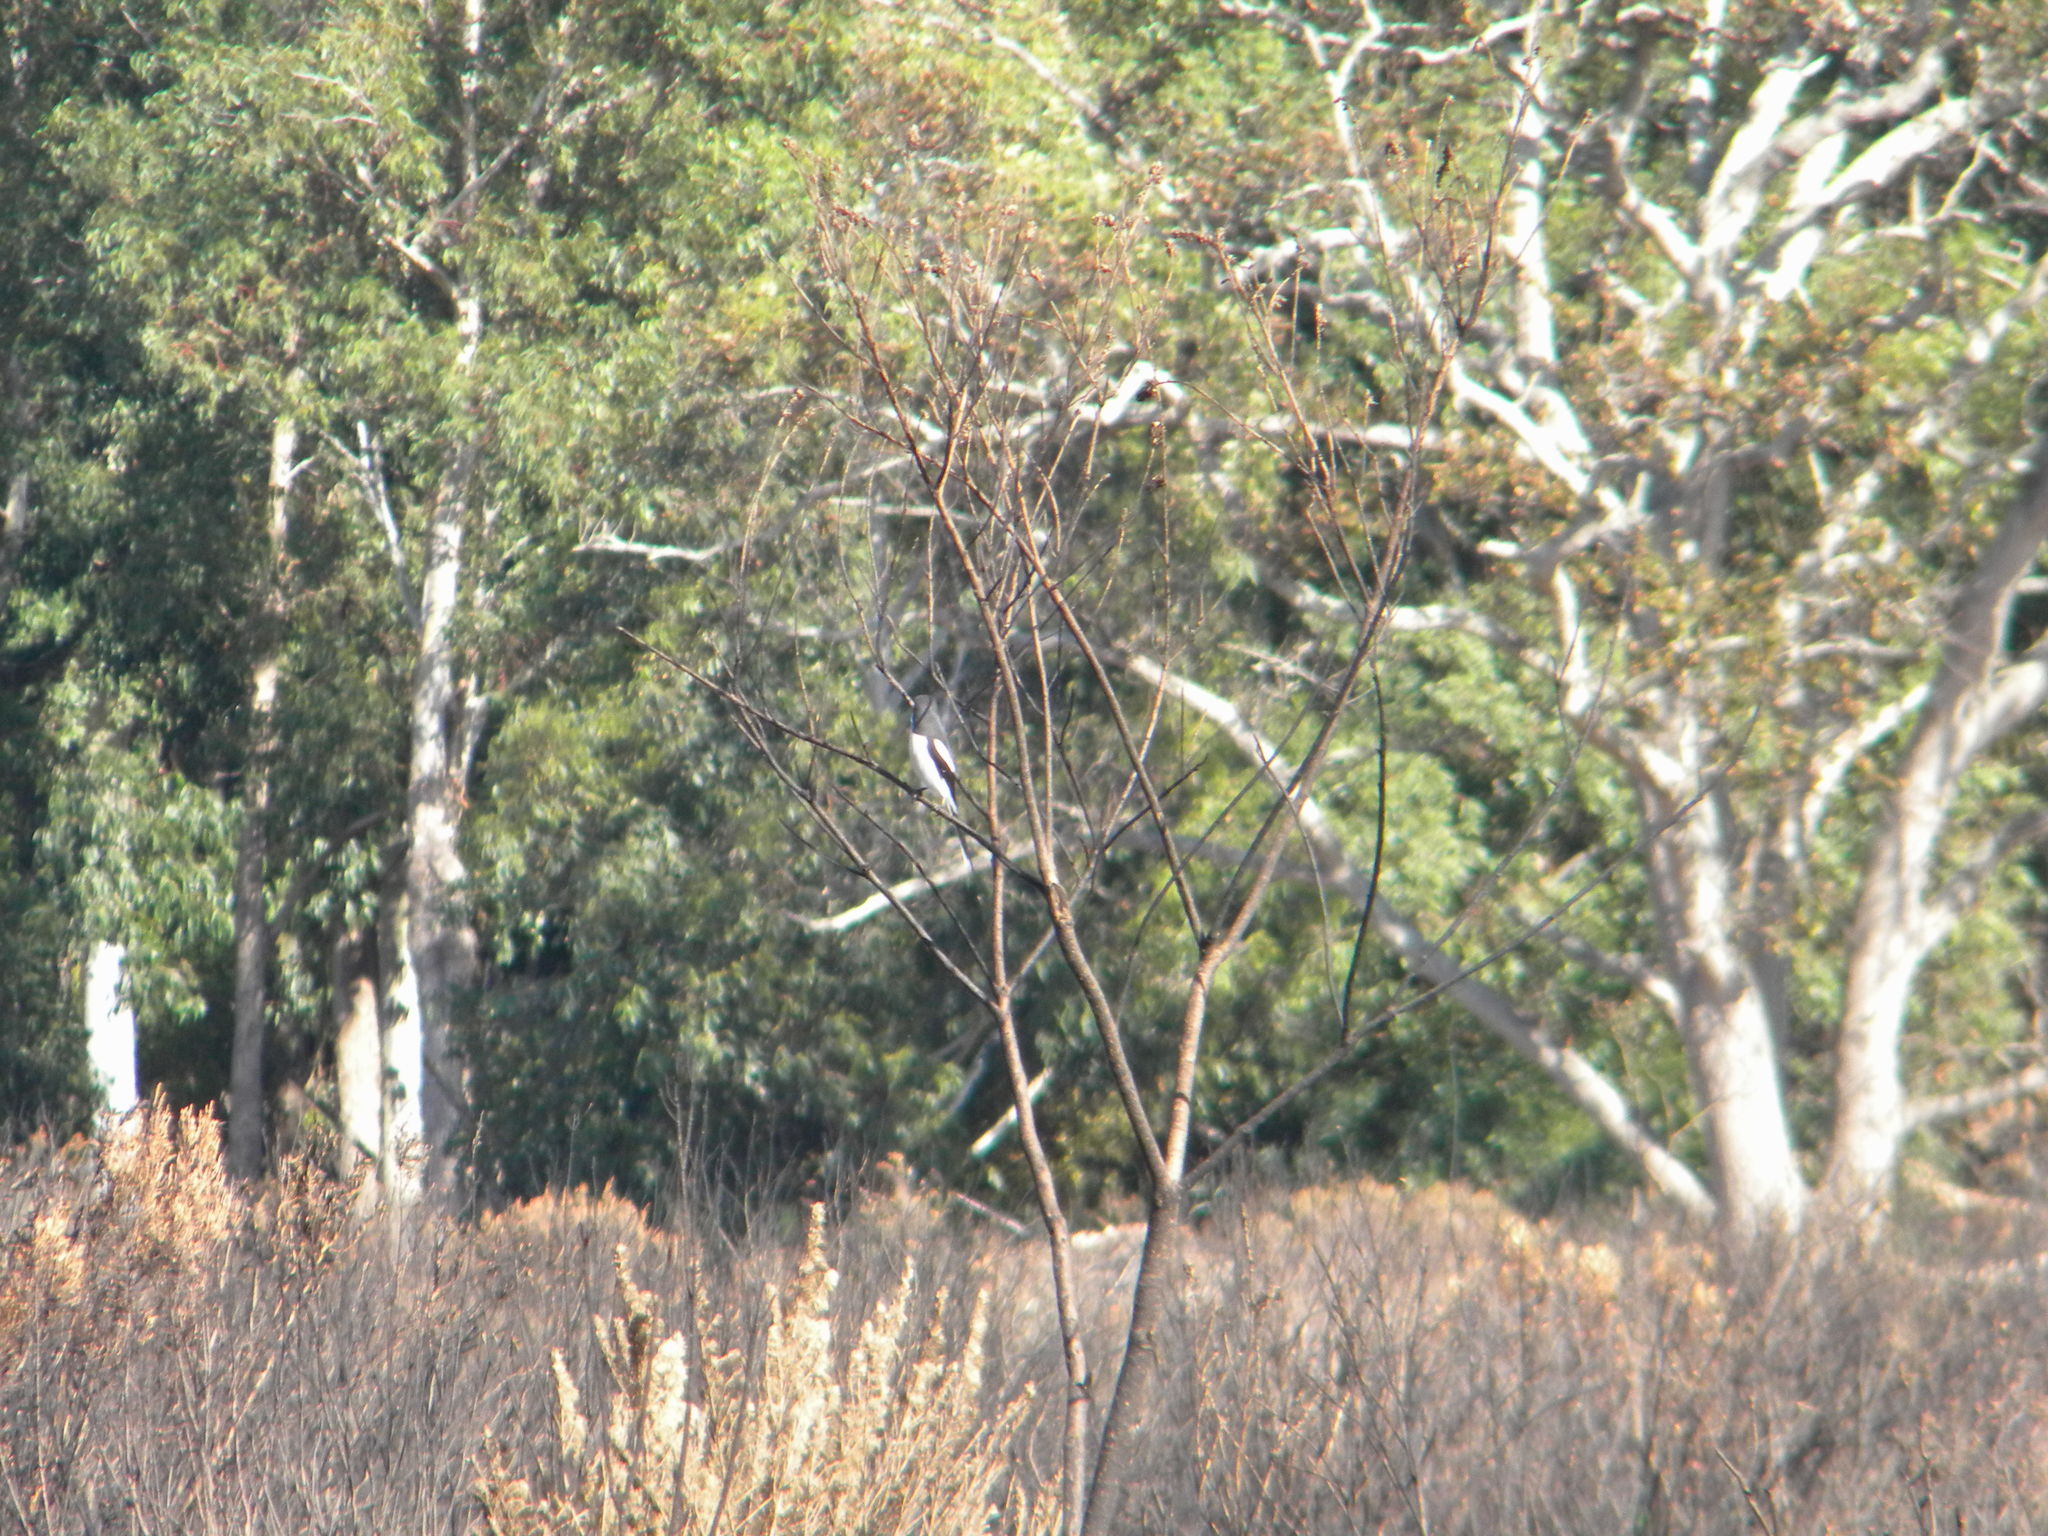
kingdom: Animalia
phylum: Chordata
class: Aves
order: Passeriformes
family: Laniidae
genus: Lanius
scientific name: Lanius collaris
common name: Southern fiscal
